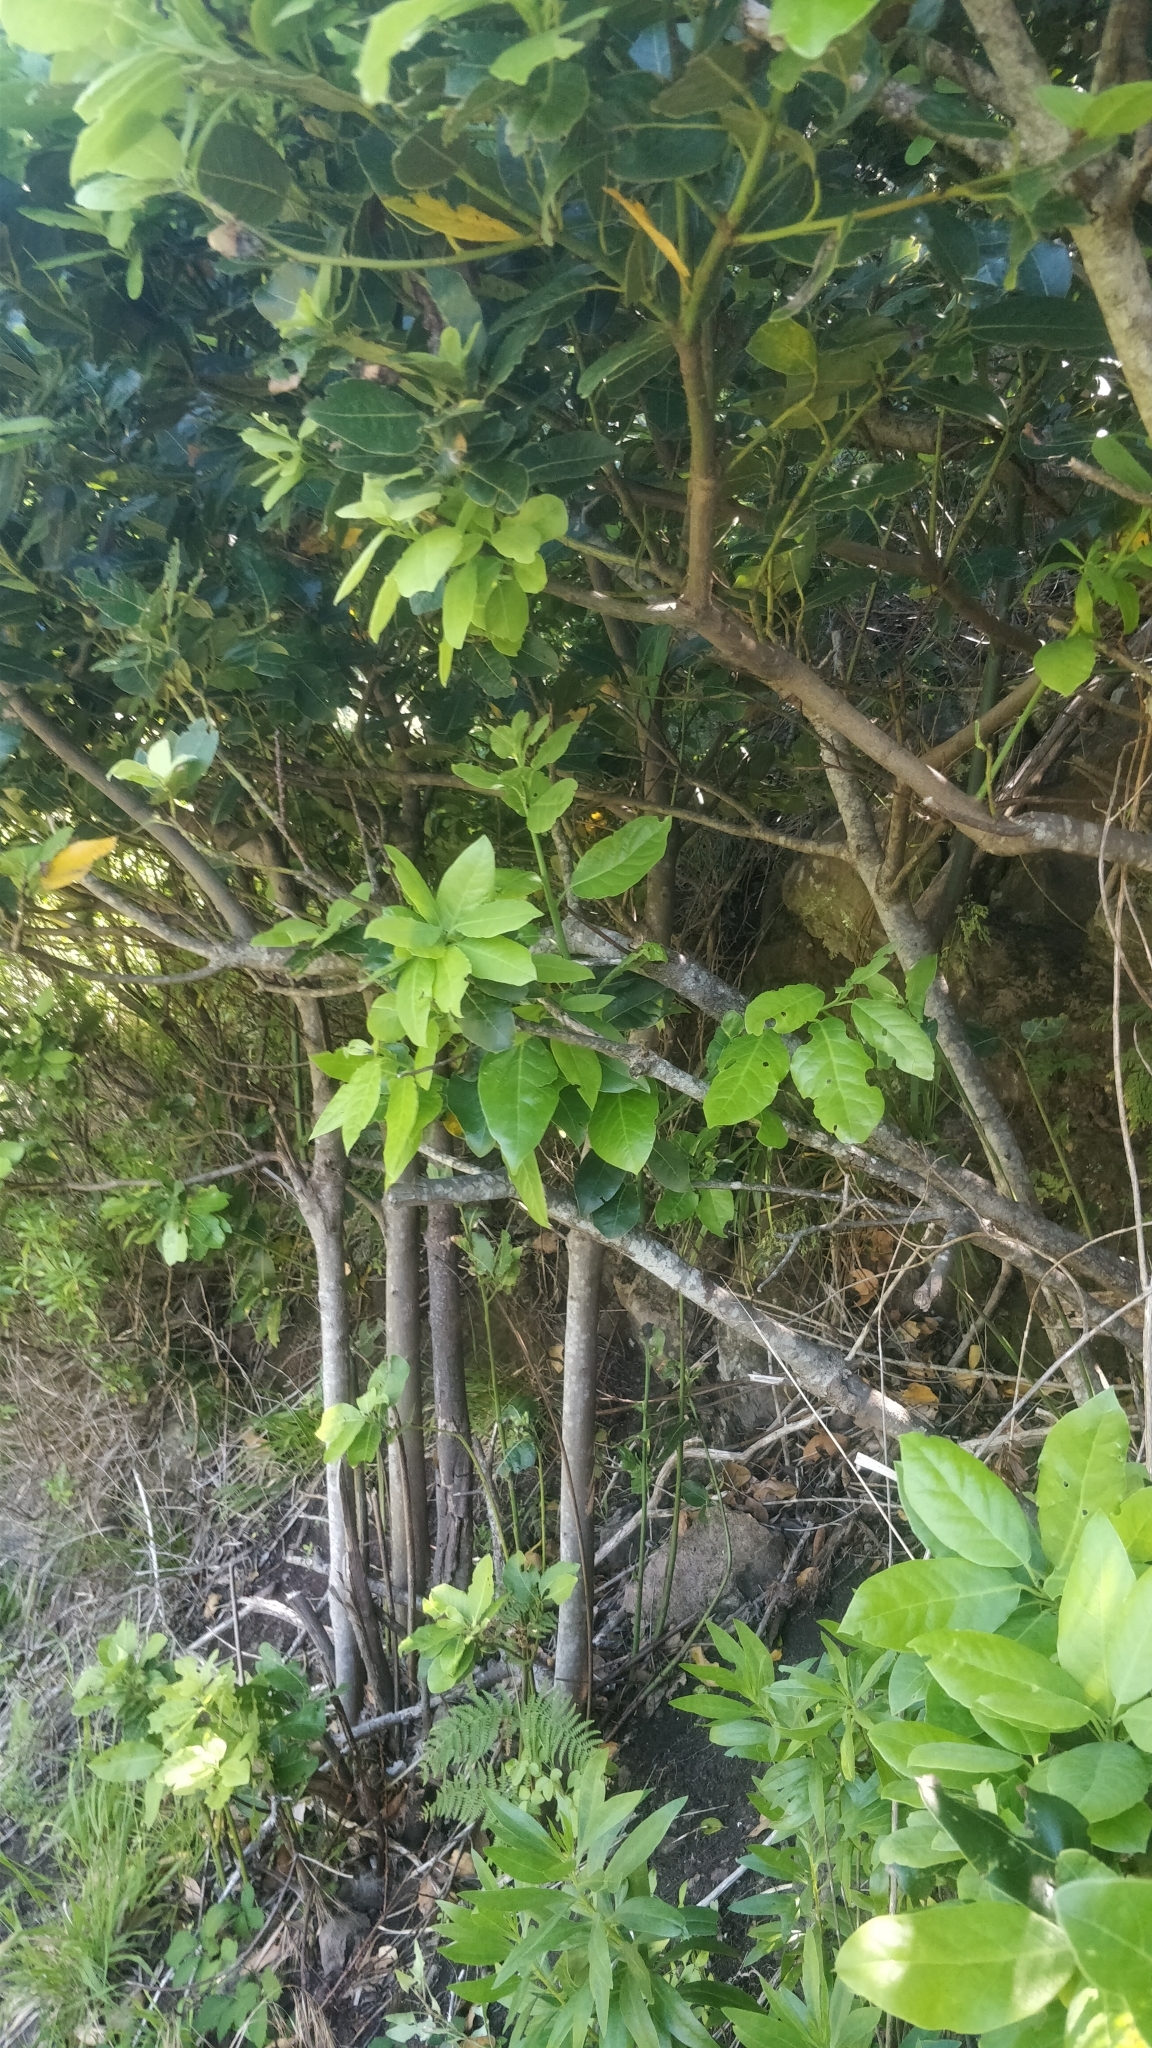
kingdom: Plantae
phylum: Tracheophyta
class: Magnoliopsida
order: Laurales
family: Lauraceae
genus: Laurus
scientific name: Laurus novocanariensis
